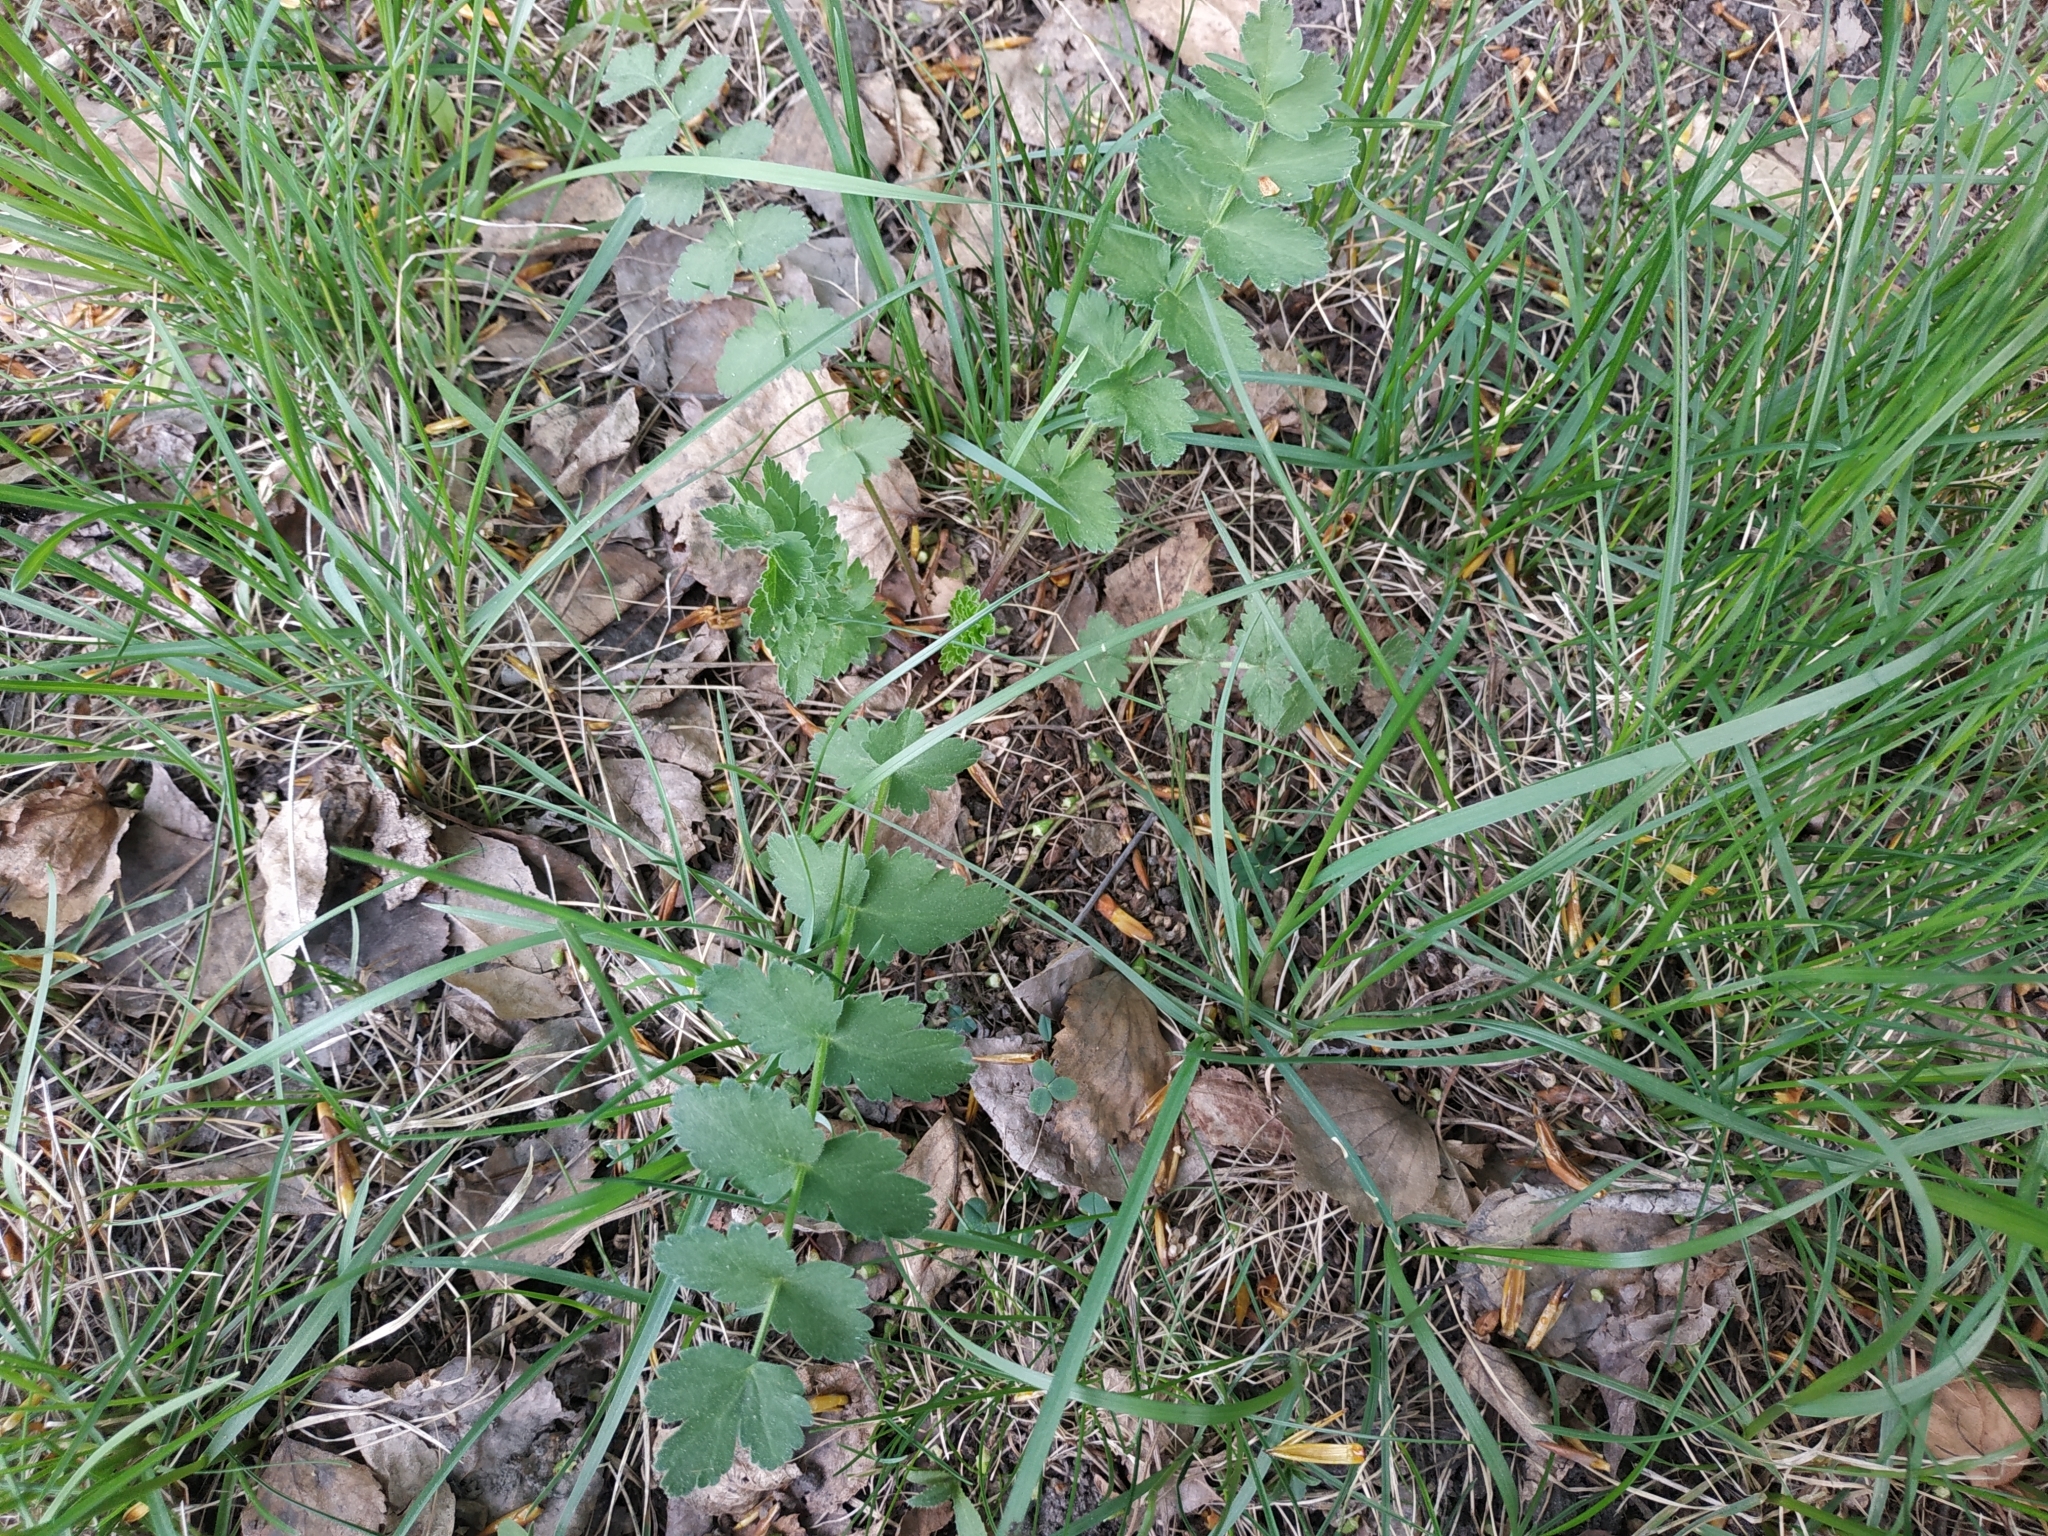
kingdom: Plantae
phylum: Tracheophyta
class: Magnoliopsida
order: Apiales
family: Apiaceae
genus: Pastinaca
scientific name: Pastinaca sativa
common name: Wild parsnip
